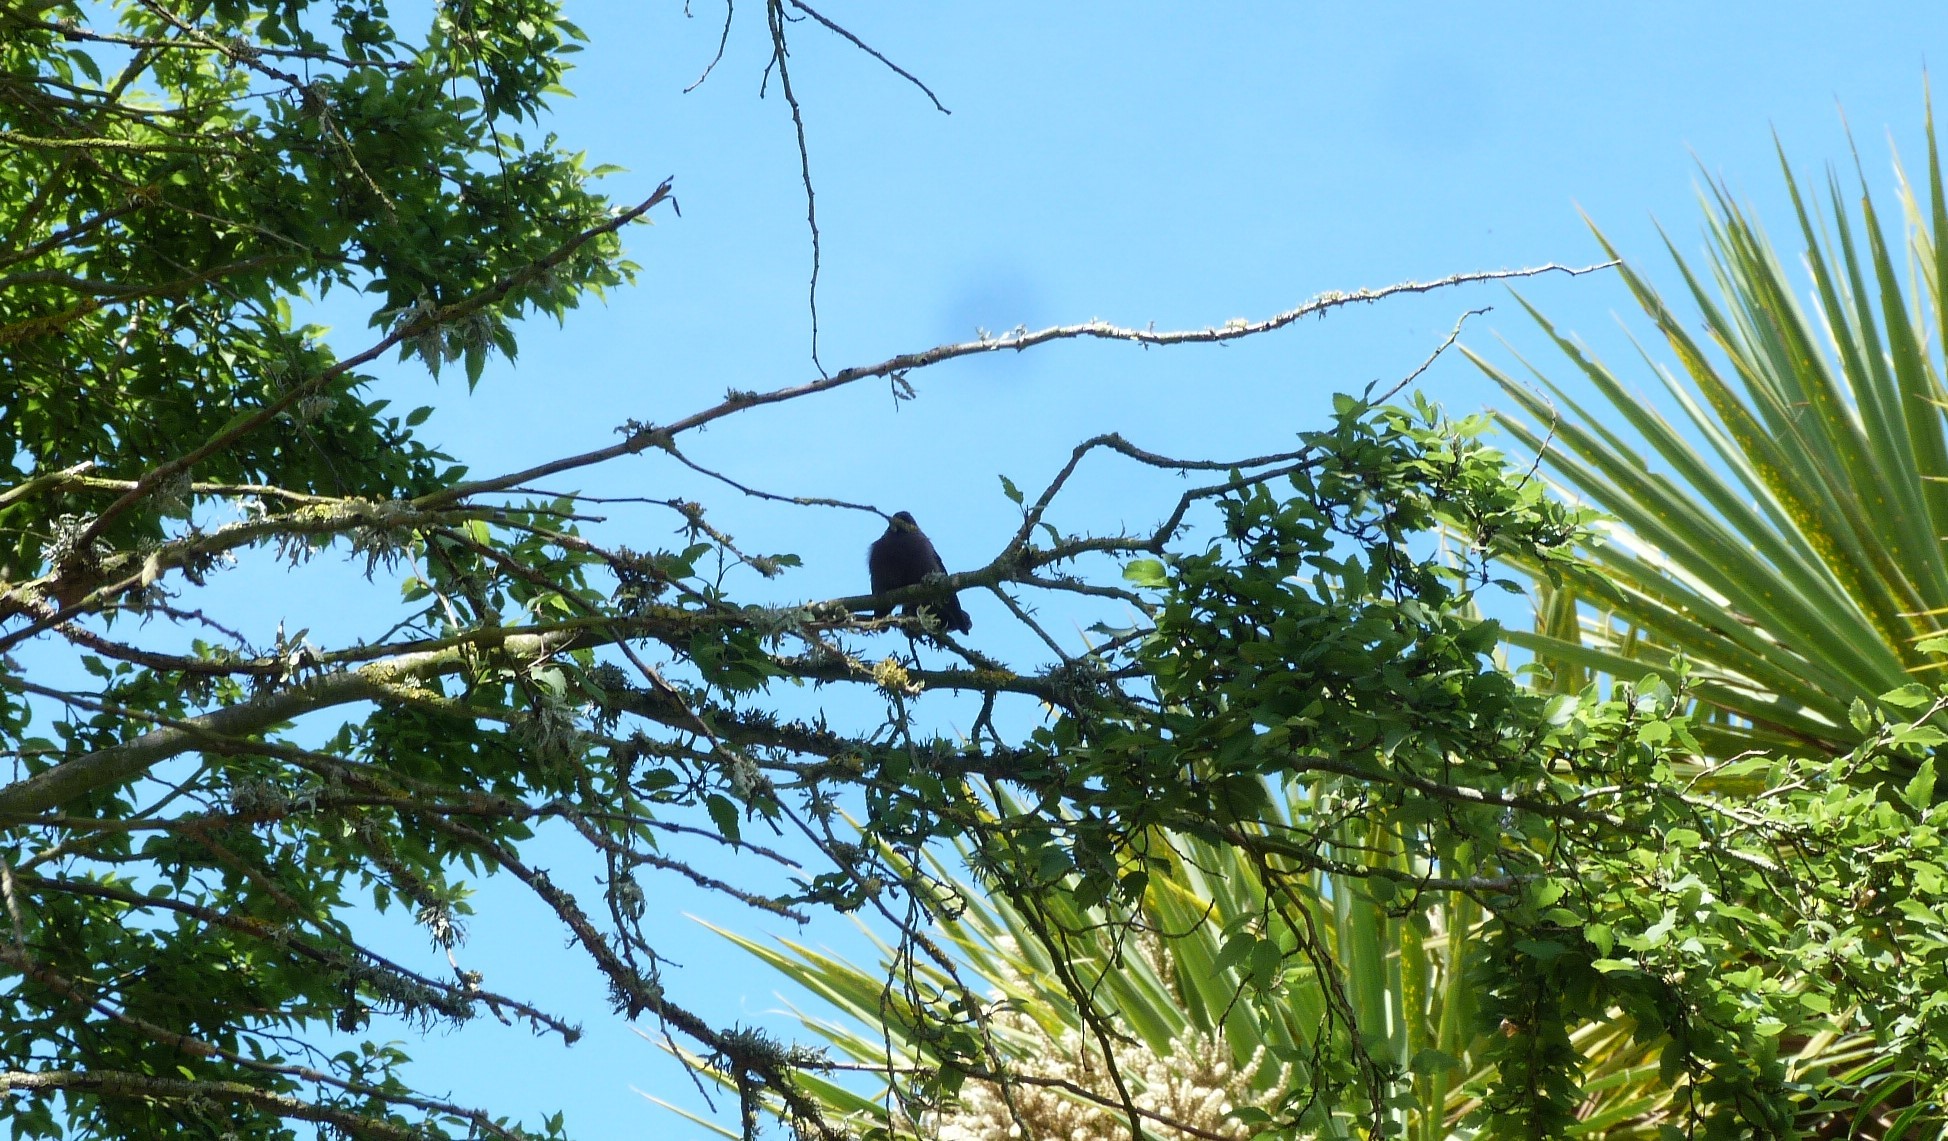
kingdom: Animalia
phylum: Chordata
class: Aves
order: Passeriformes
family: Rhipiduridae
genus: Rhipidura
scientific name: Rhipidura fuliginosa
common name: New zealand fantail
